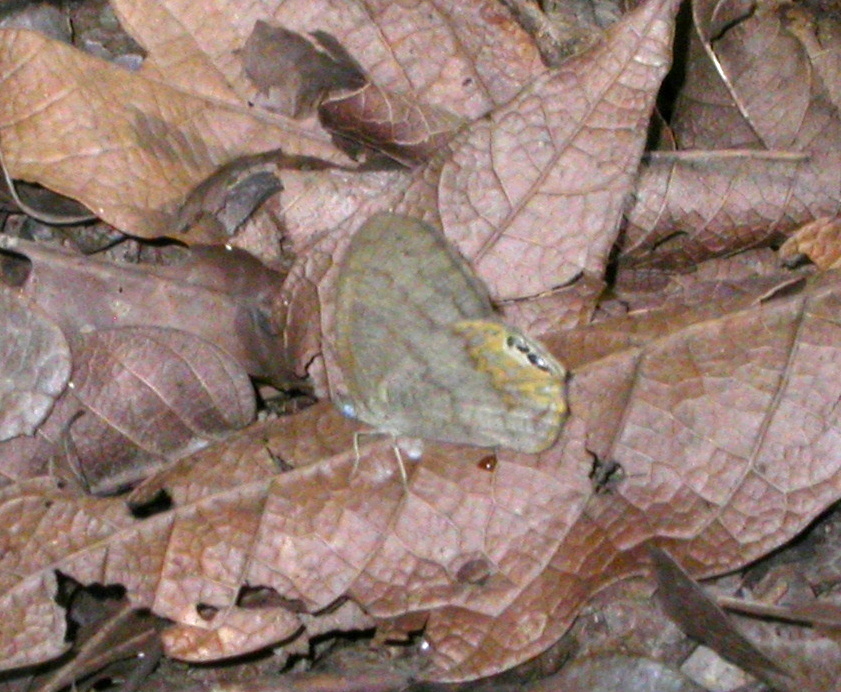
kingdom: Animalia
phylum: Arthropoda
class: Insecta
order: Lepidoptera
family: Nymphalidae
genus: Euptychia
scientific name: Euptychia
